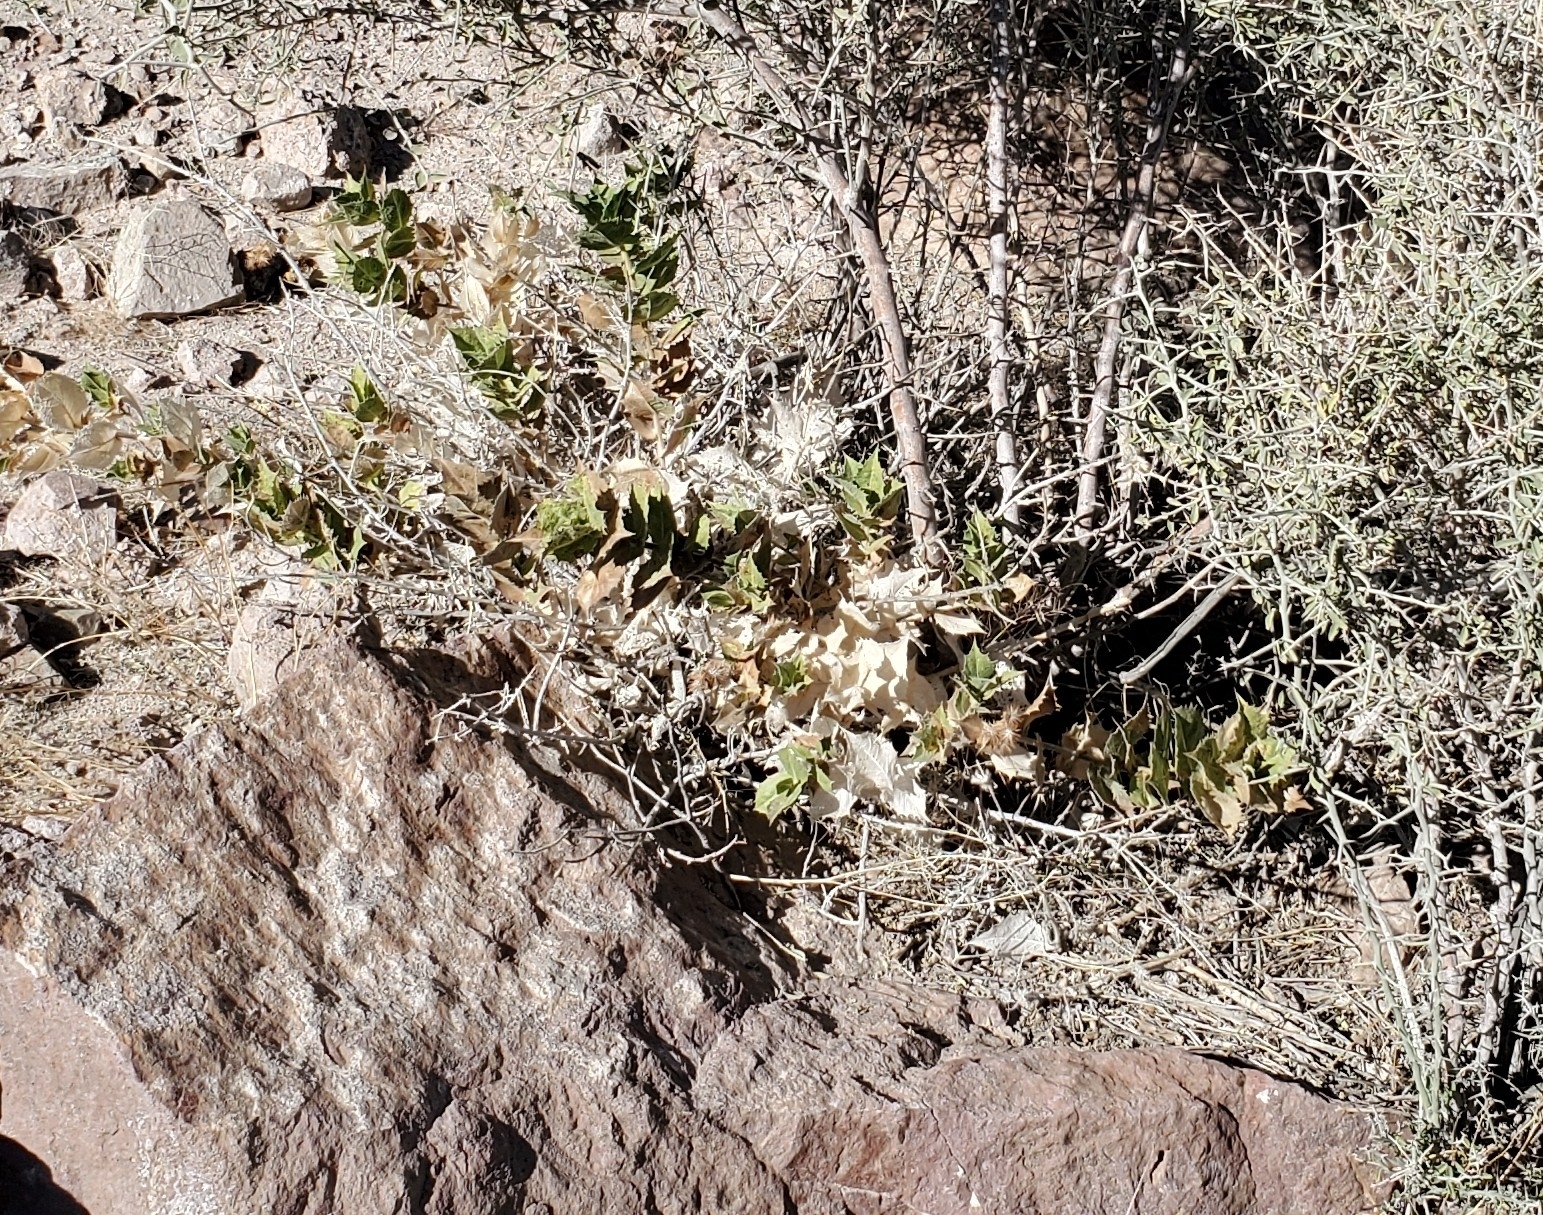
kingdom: Plantae
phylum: Tracheophyta
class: Magnoliopsida
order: Asterales
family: Asteraceae
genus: Ambrosia
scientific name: Ambrosia ilicifolia
